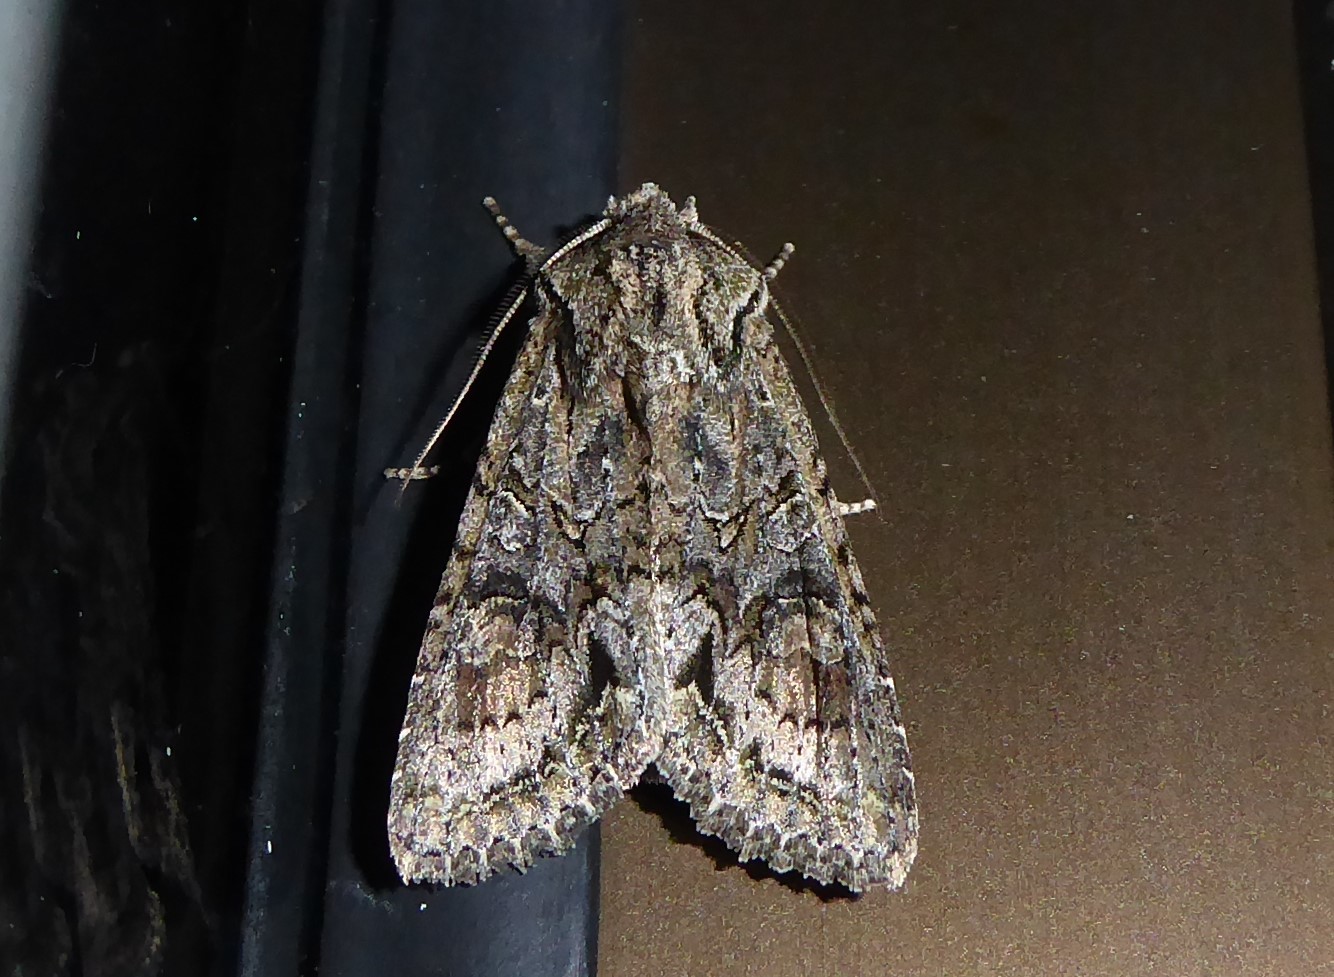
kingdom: Animalia
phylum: Arthropoda
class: Insecta
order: Lepidoptera
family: Noctuidae
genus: Ichneutica
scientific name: Ichneutica mutans
